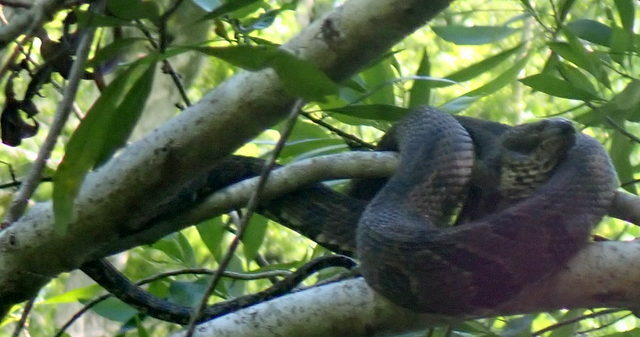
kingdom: Animalia
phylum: Chordata
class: Squamata
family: Colubridae
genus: Nerodia
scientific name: Nerodia taxispilota
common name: Brown water snake
